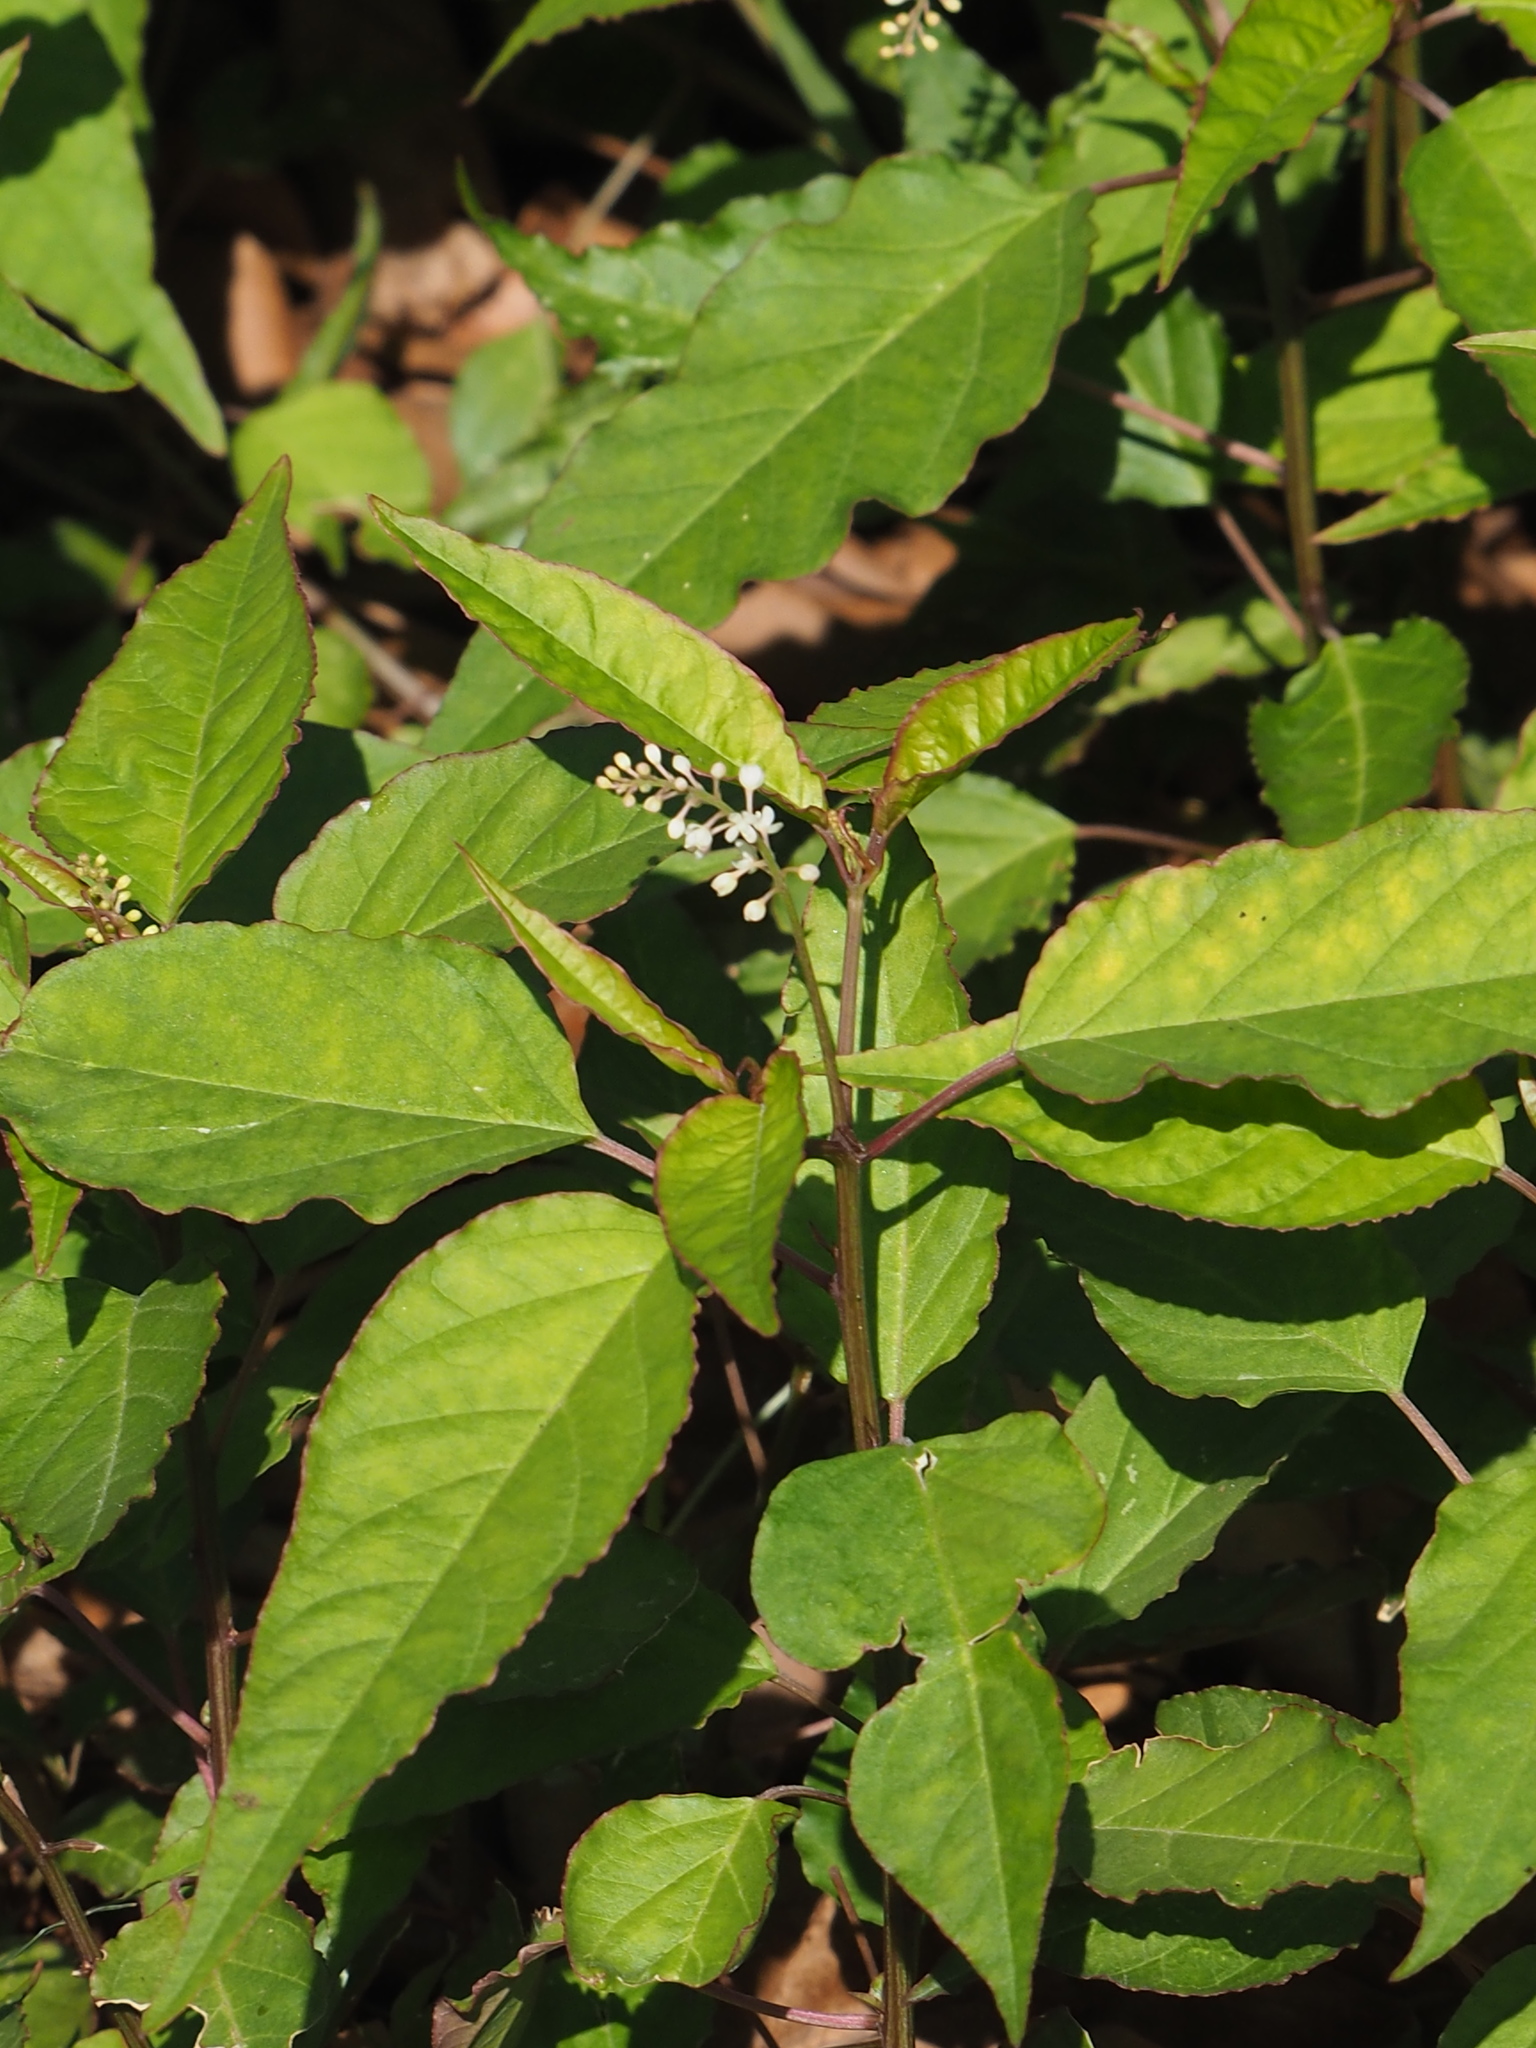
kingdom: Plantae
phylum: Tracheophyta
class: Magnoliopsida
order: Caryophyllales
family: Phytolaccaceae
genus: Rivina
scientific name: Rivina humilis
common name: Rougeplant
